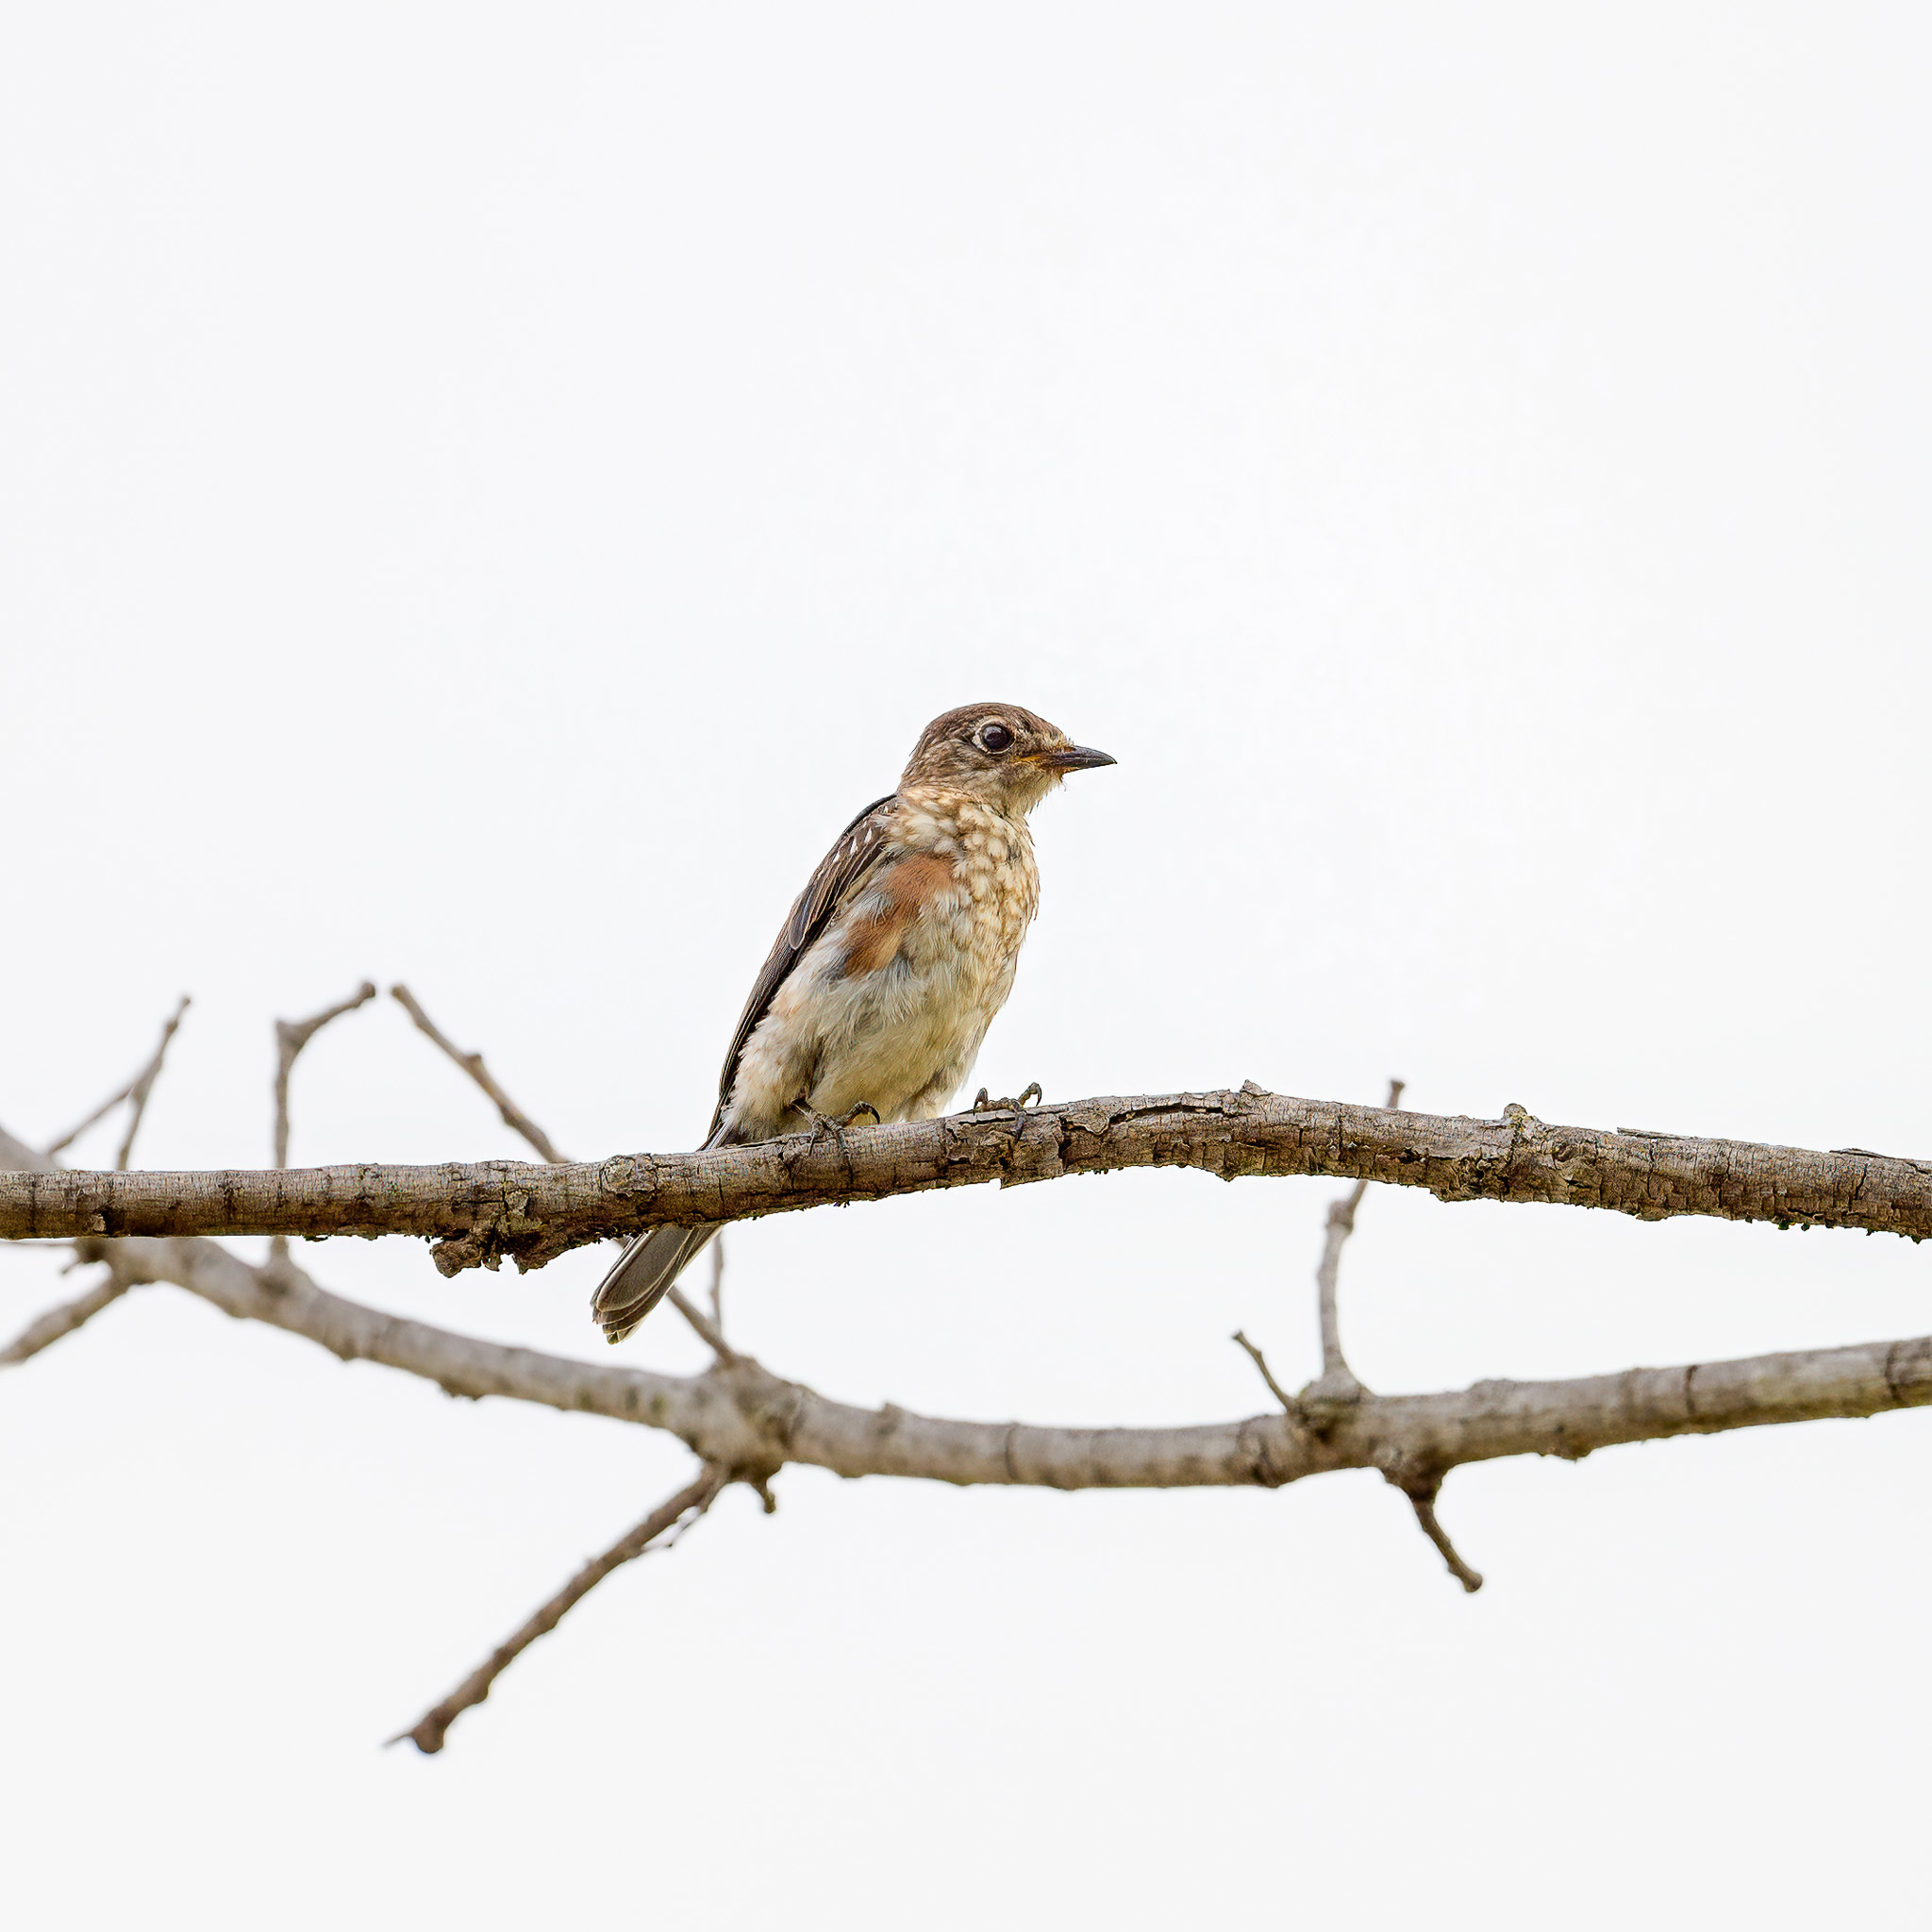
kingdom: Animalia
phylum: Chordata
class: Aves
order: Passeriformes
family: Turdidae
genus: Sialia
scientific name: Sialia sialis
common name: Eastern bluebird
